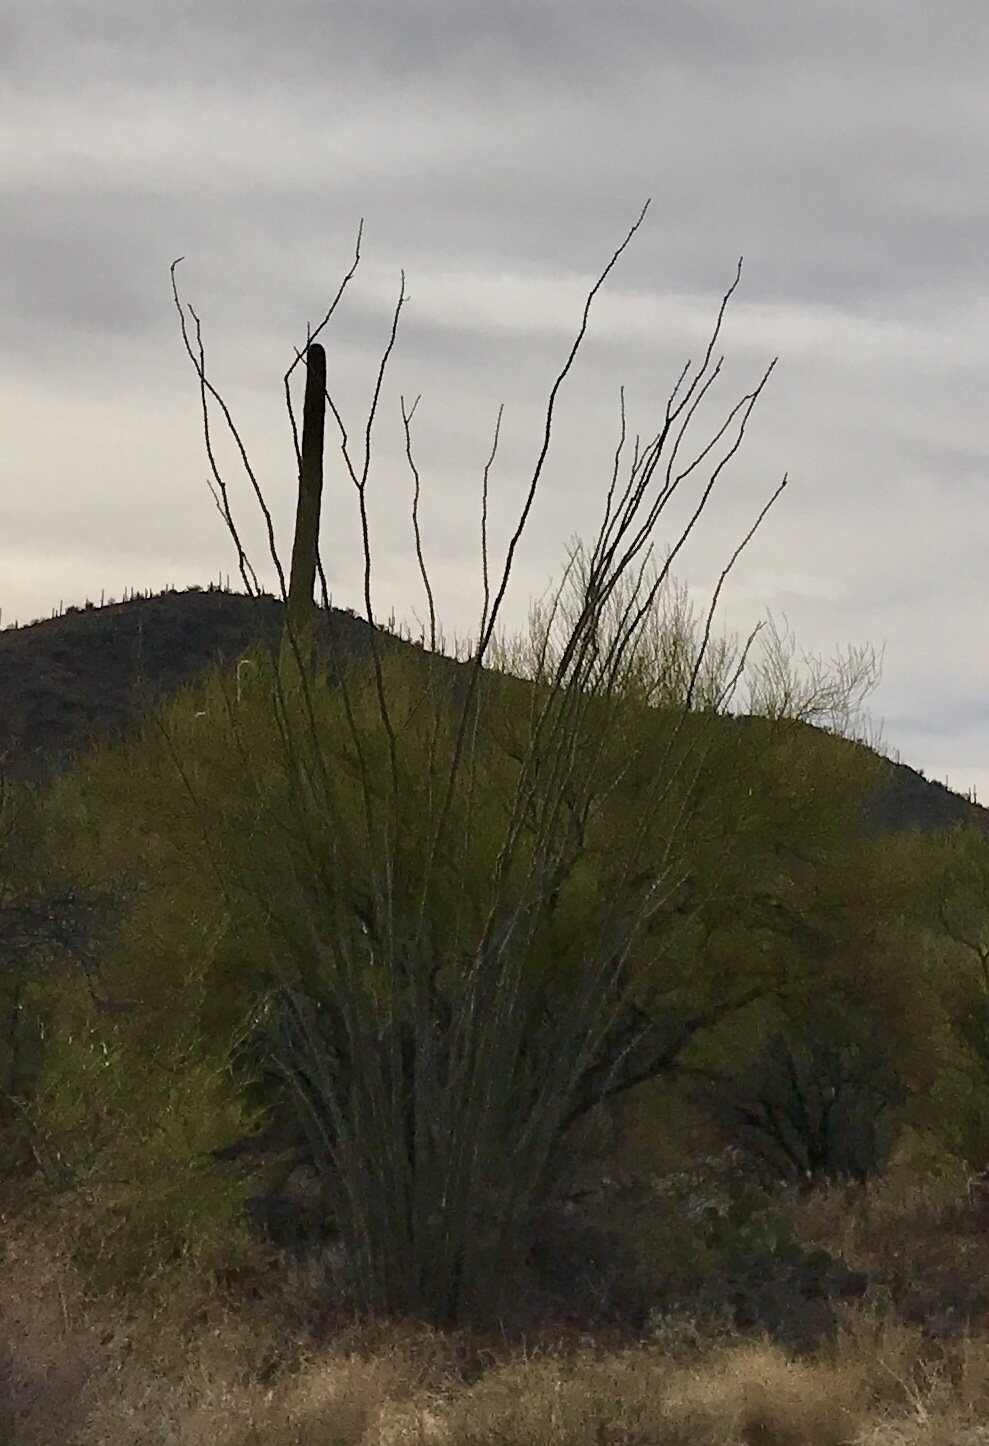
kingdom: Plantae
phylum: Tracheophyta
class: Magnoliopsida
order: Caryophyllales
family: Cactaceae
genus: Carnegiea
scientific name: Carnegiea gigantea
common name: Saguaro
